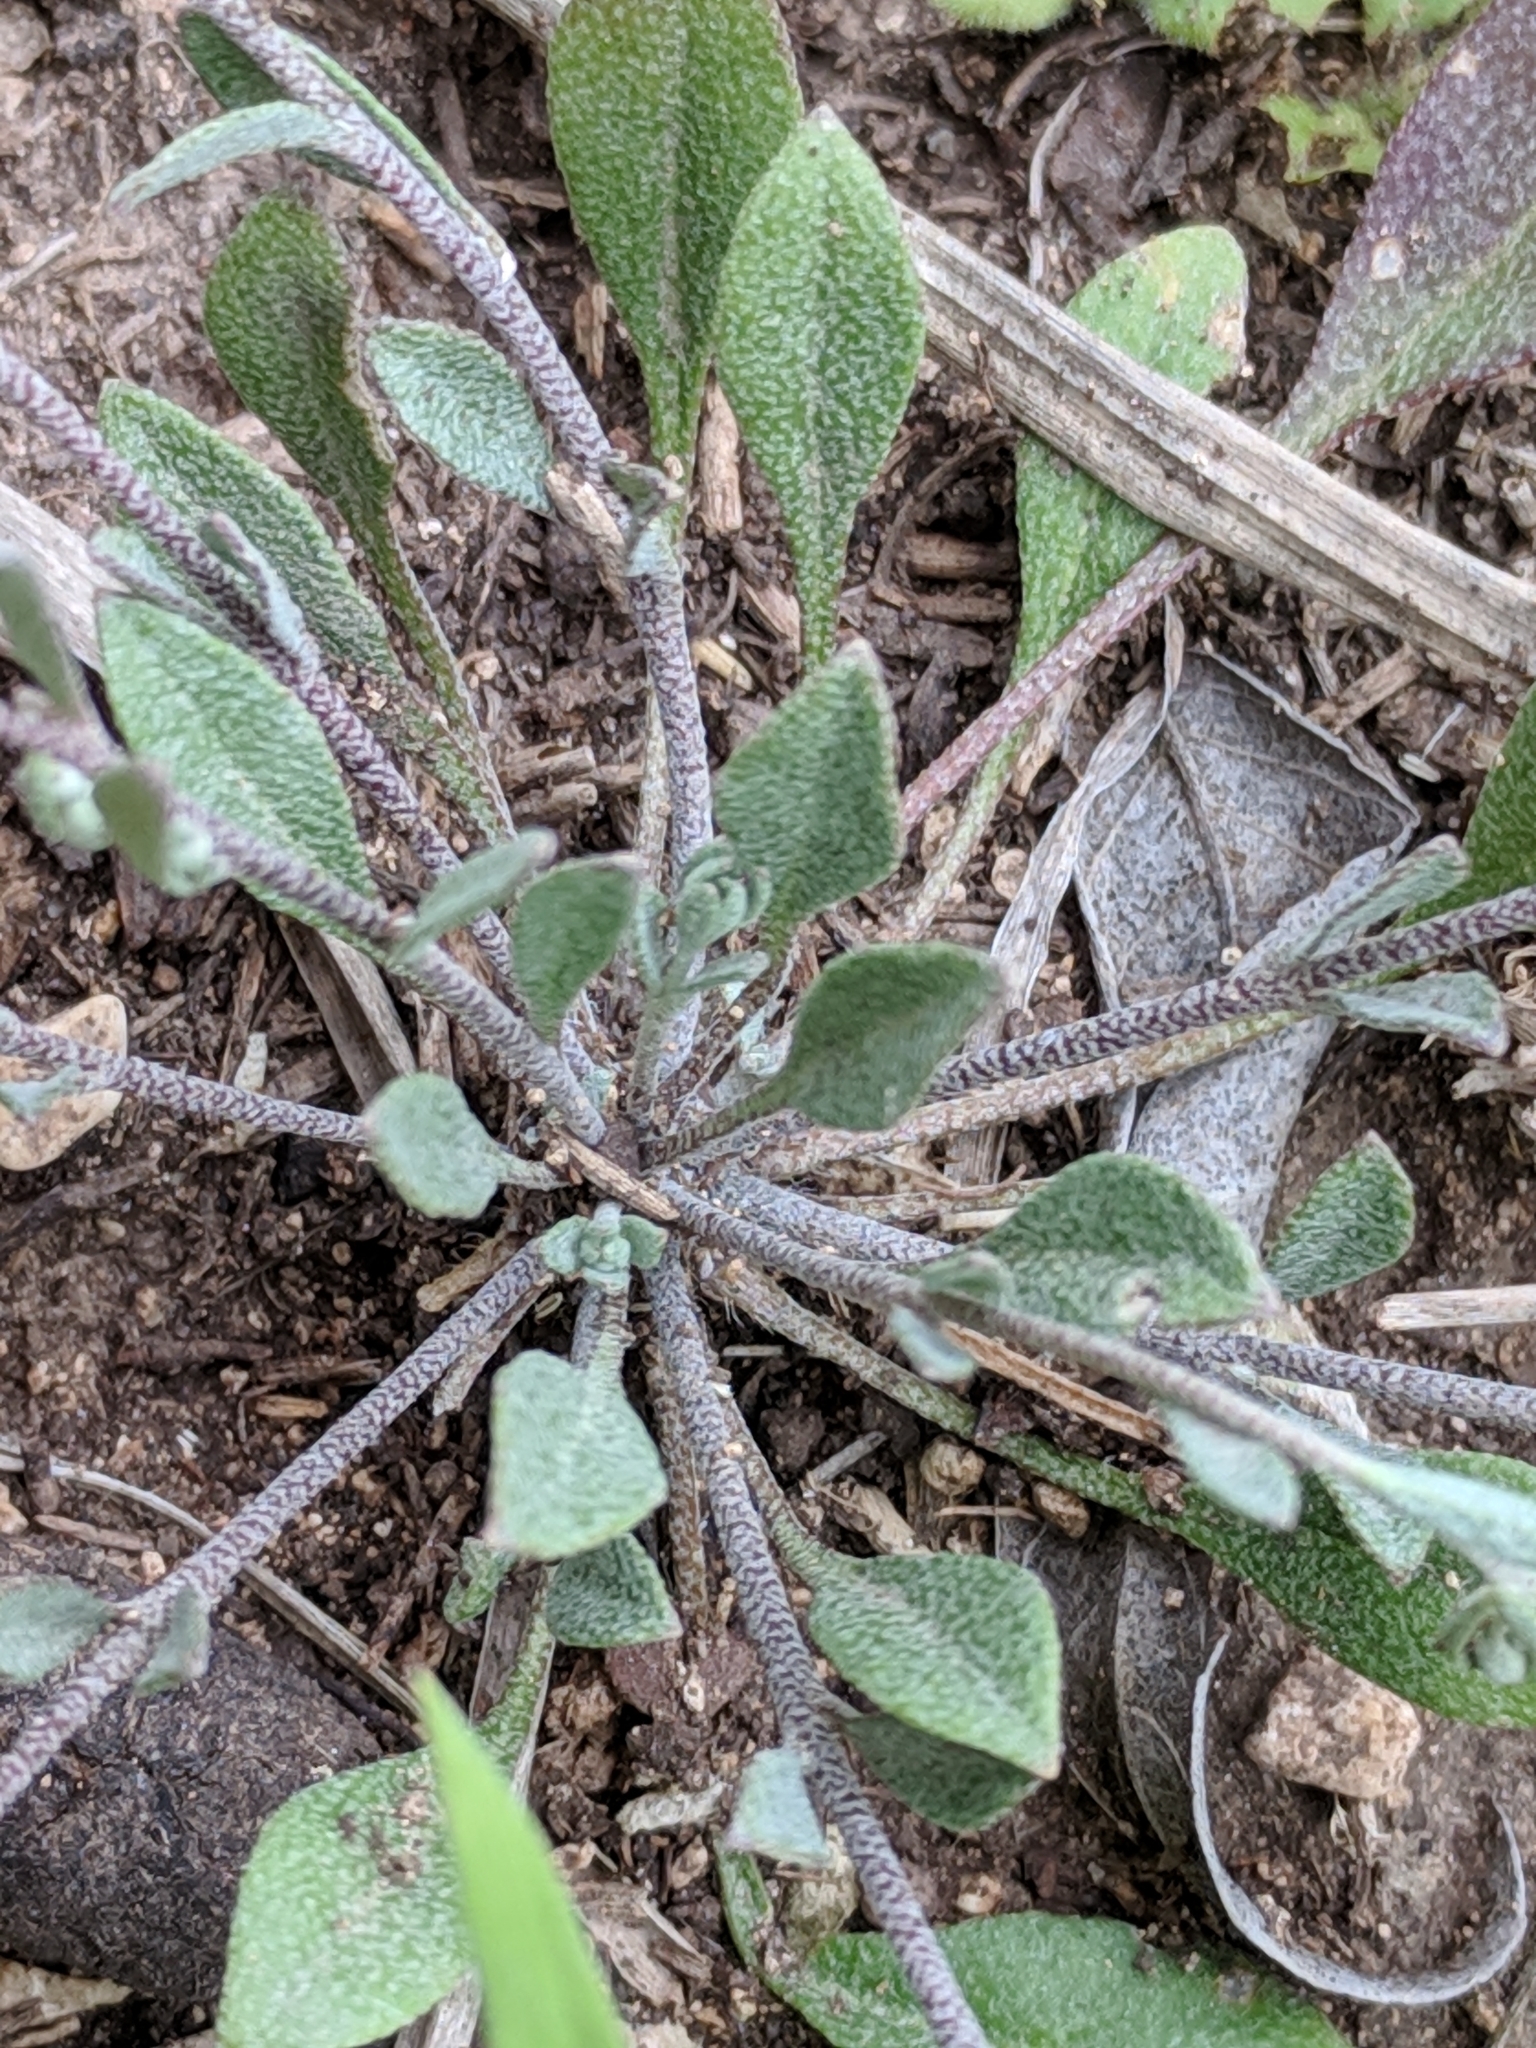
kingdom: Plantae
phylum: Tracheophyta
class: Magnoliopsida
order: Brassicales
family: Brassicaceae
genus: Physaria
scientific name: Physaria recurvata
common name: Gaslight bladderpod
